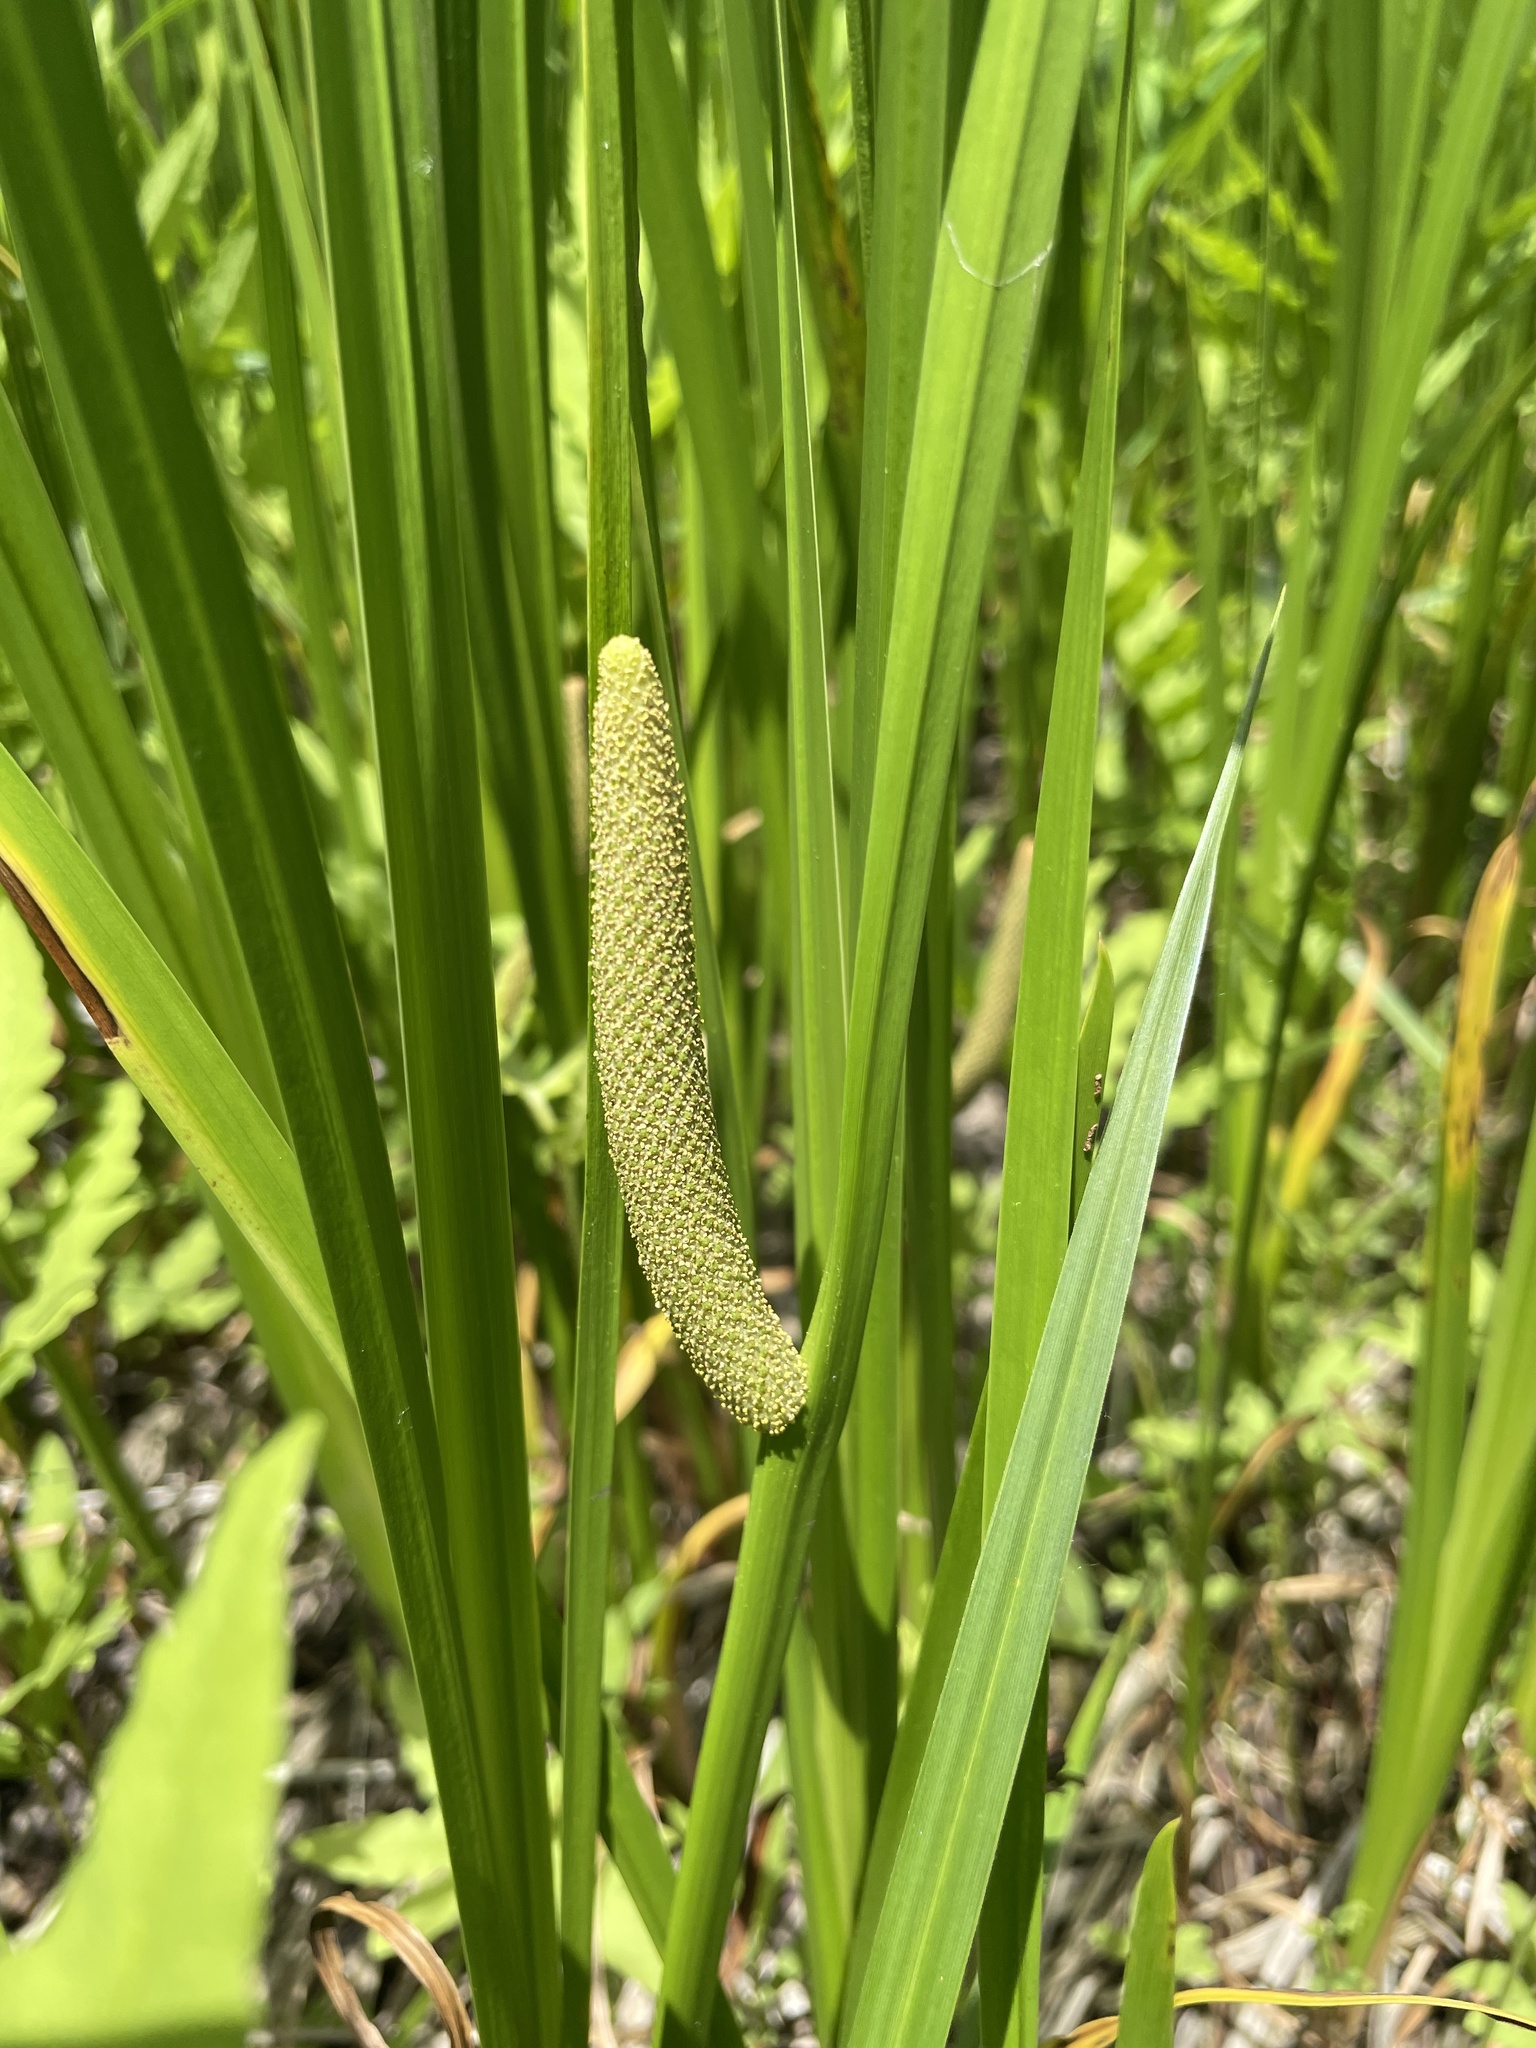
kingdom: Plantae
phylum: Tracheophyta
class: Liliopsida
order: Acorales
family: Acoraceae
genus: Acorus
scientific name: Acorus calamus
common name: Sweet-flag
